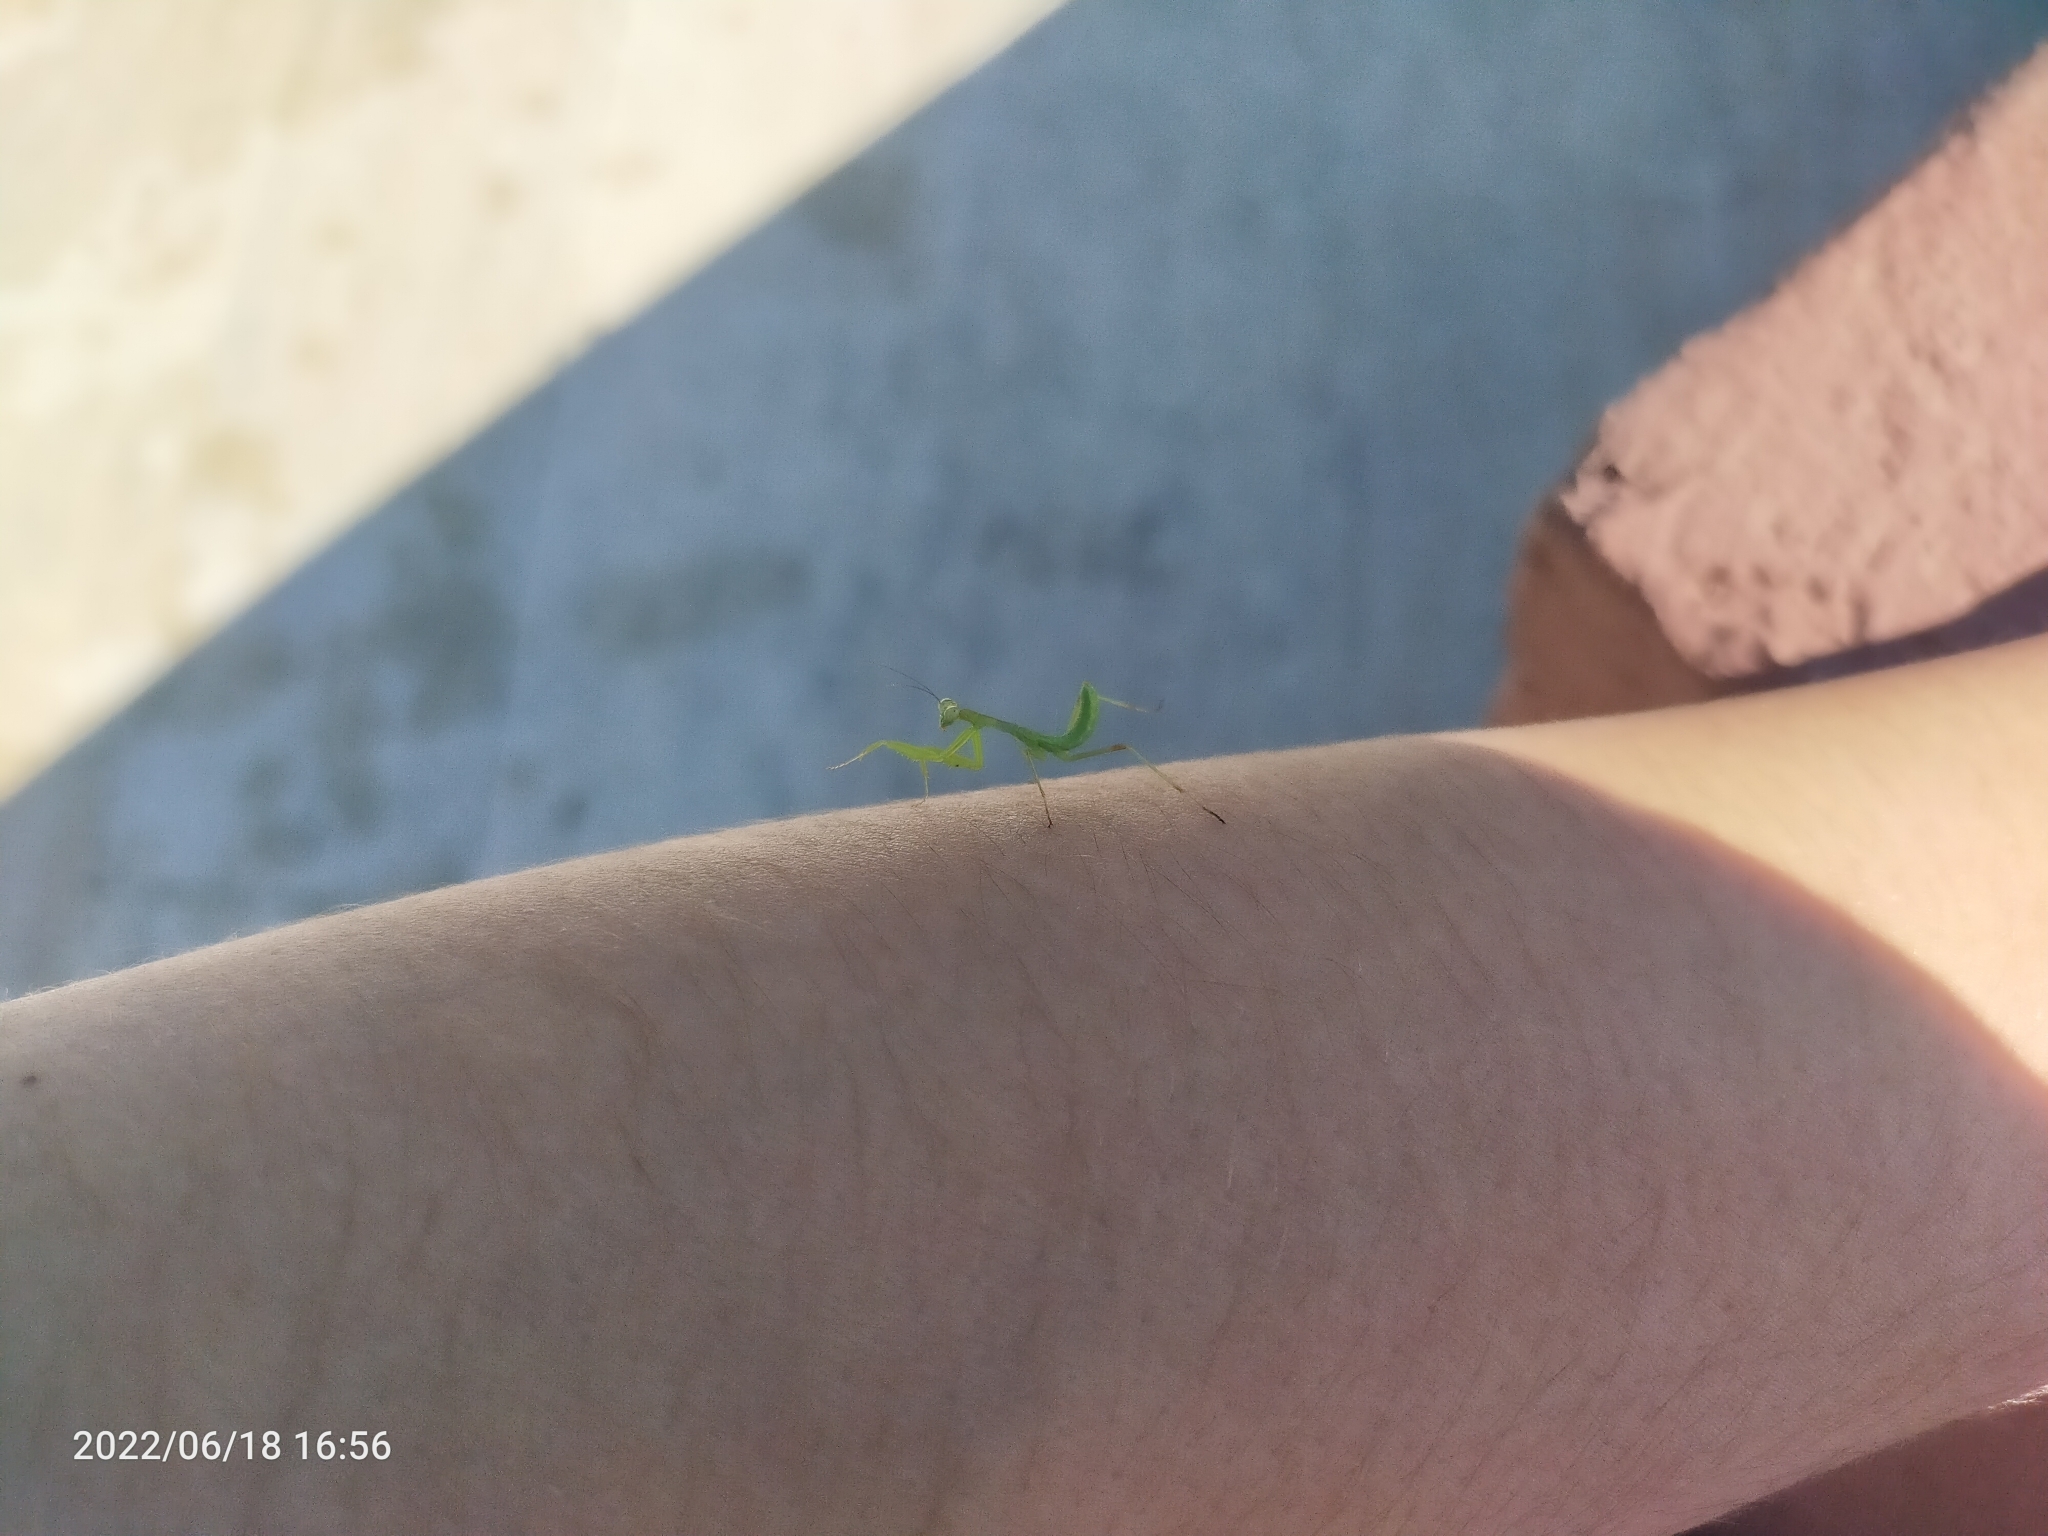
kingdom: Animalia
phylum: Arthropoda
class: Insecta
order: Mantodea
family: Mantidae
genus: Hierodula
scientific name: Hierodula transcaucasica
